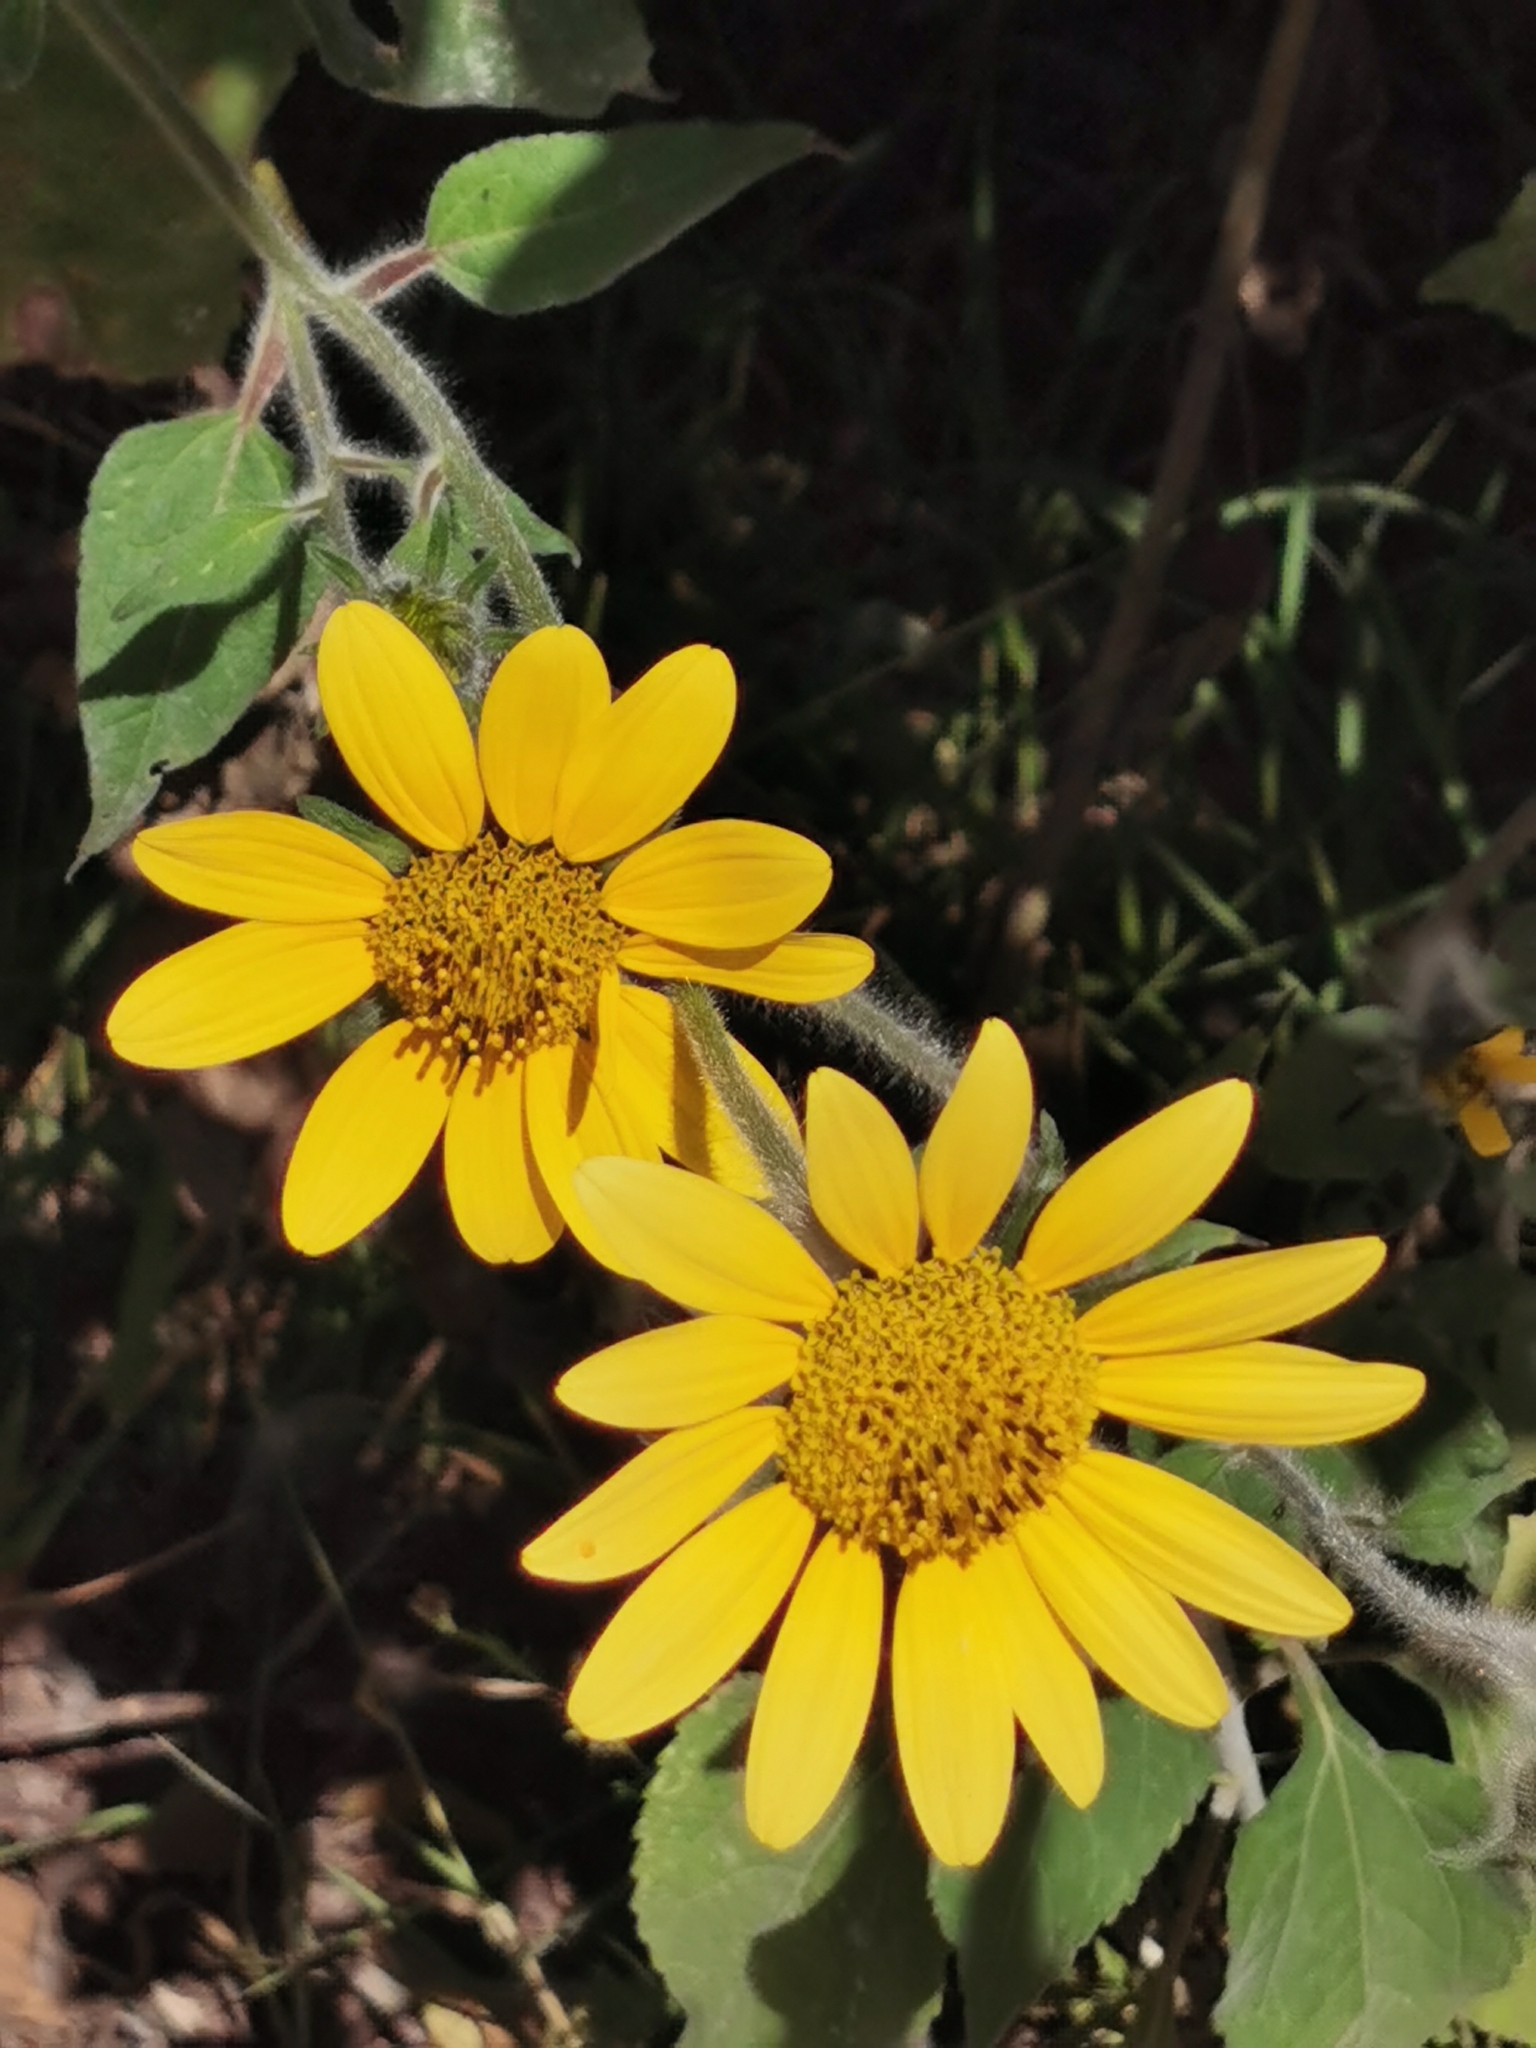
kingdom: Plantae
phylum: Tracheophyta
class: Magnoliopsida
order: Asterales
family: Asteraceae
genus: Tithonia
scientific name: Tithonia tubaeformis
